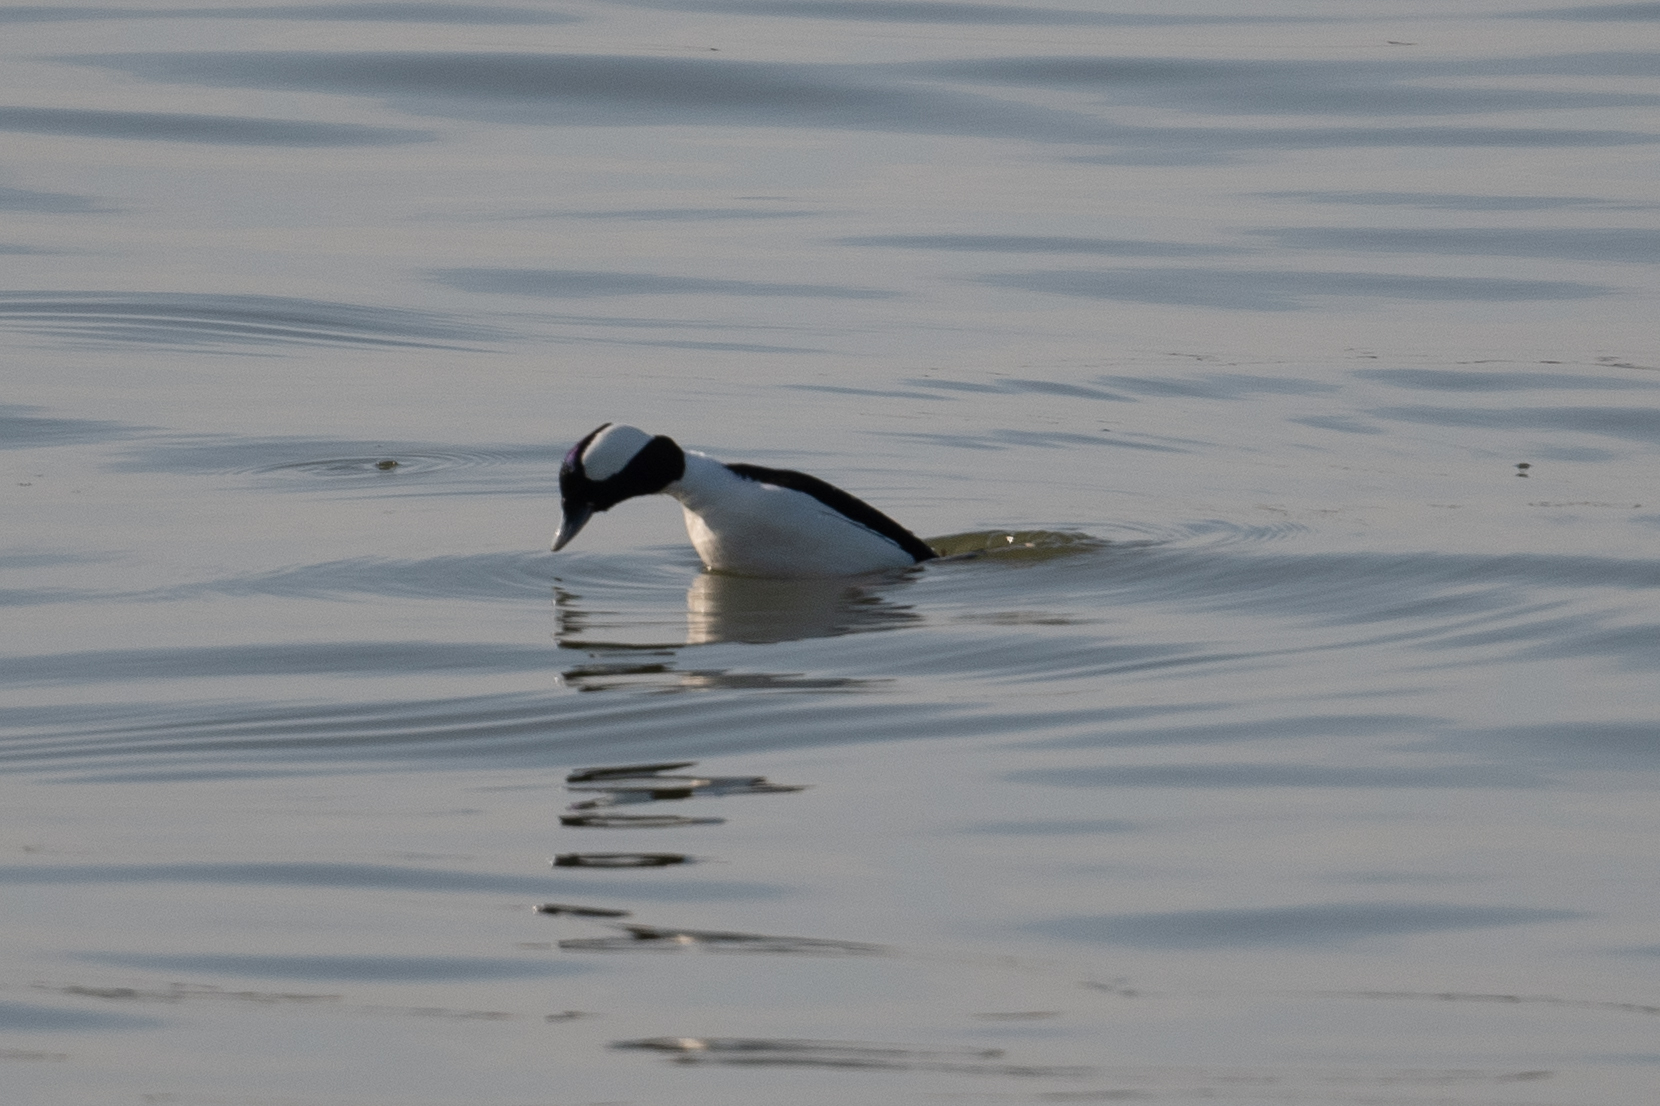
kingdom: Animalia
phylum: Chordata
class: Aves
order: Anseriformes
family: Anatidae
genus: Bucephala
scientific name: Bucephala albeola
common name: Bufflehead
